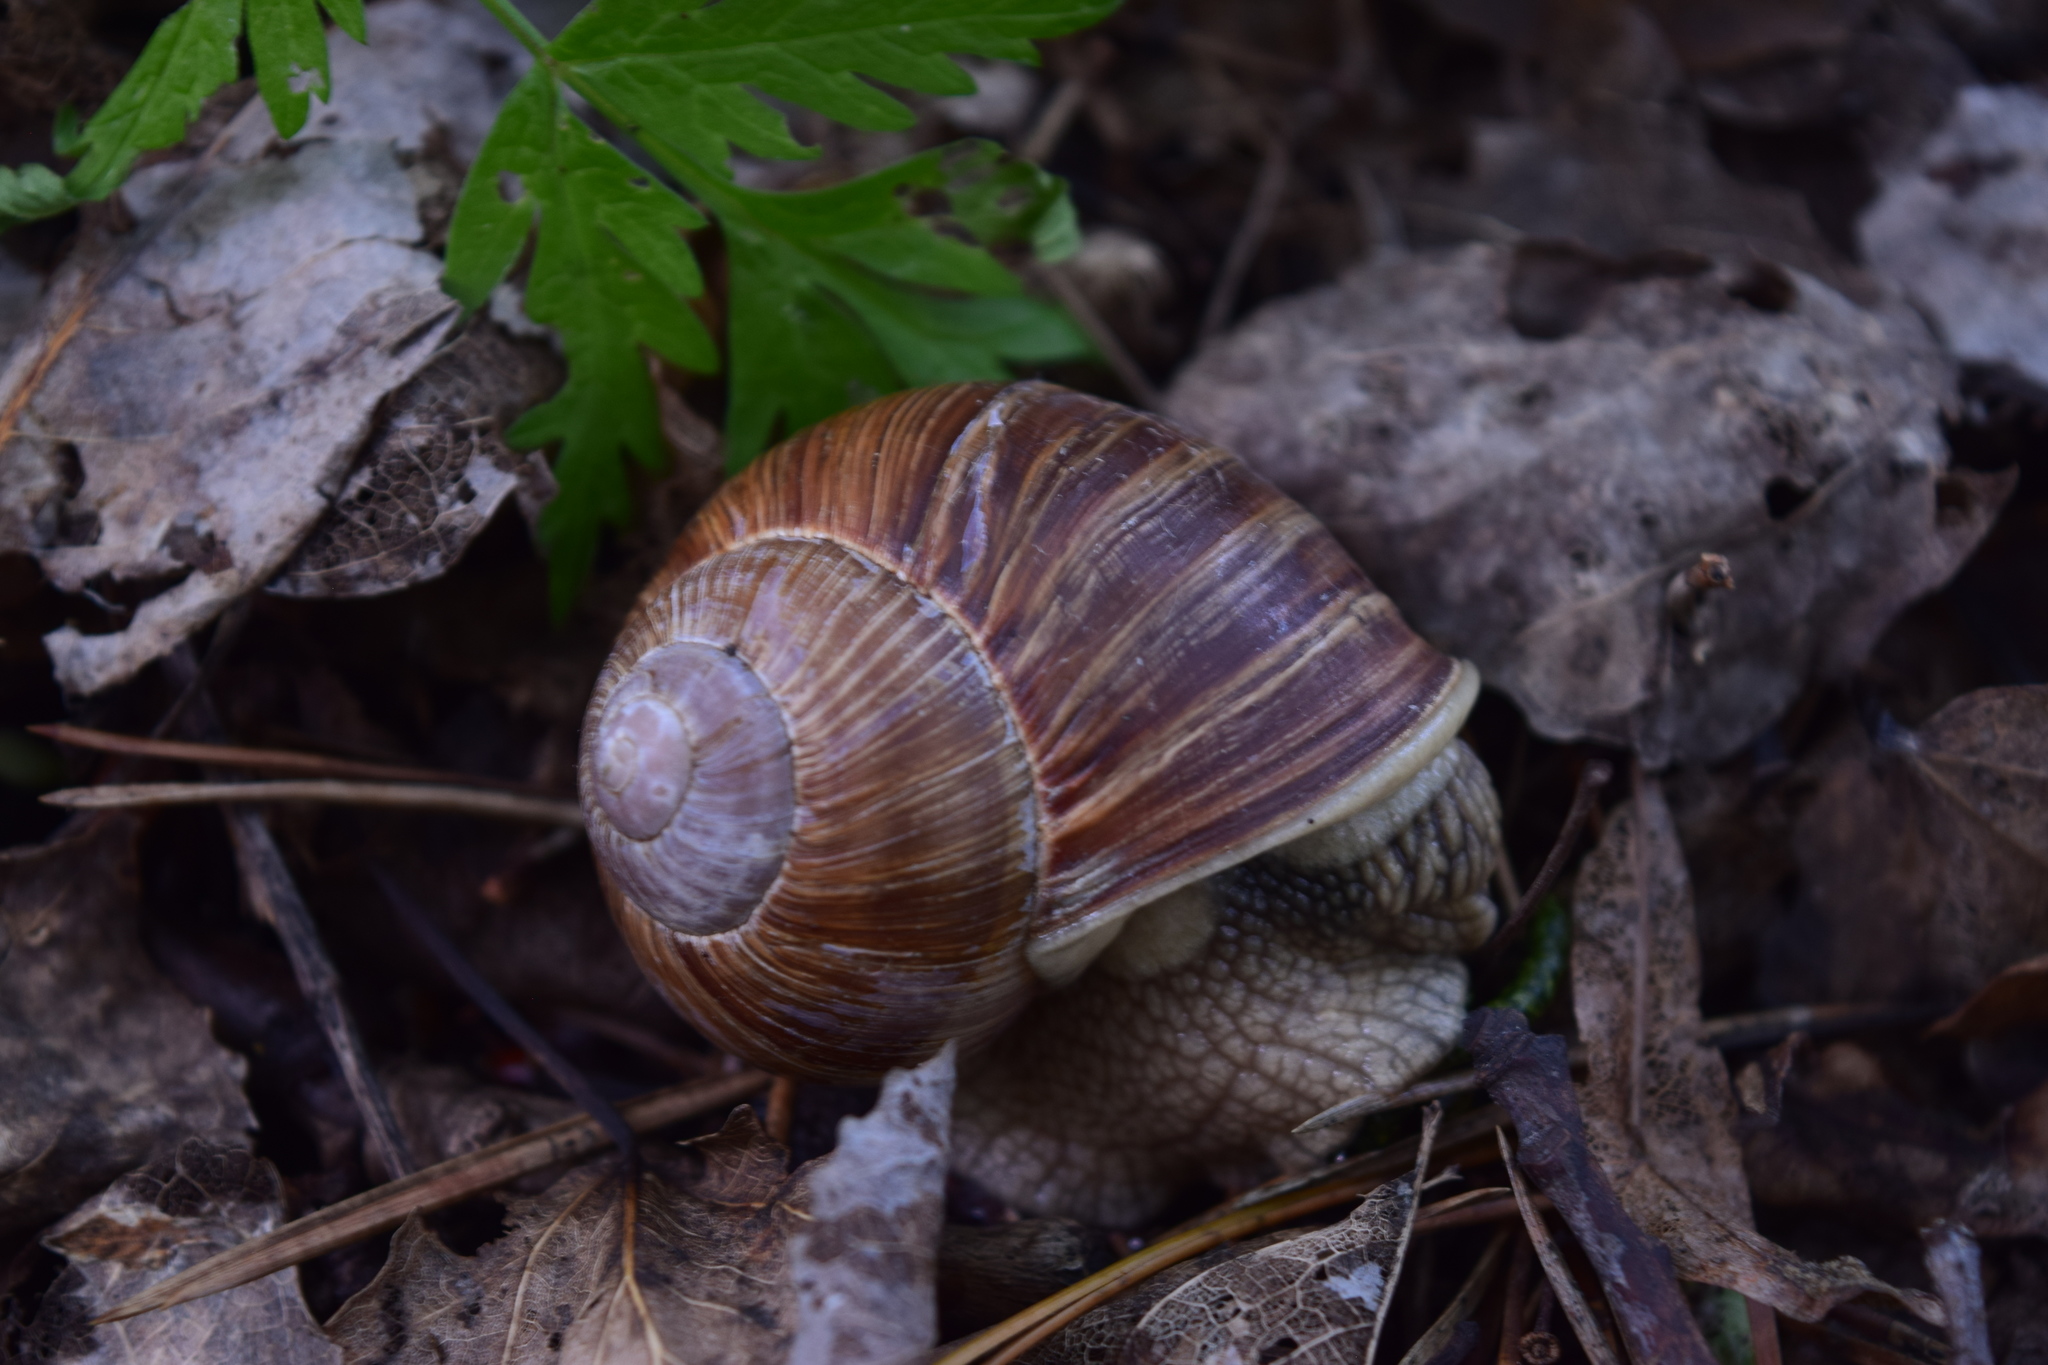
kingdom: Animalia
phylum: Mollusca
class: Gastropoda
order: Stylommatophora
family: Helicidae
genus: Helix
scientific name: Helix pomatia
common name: Roman snail
